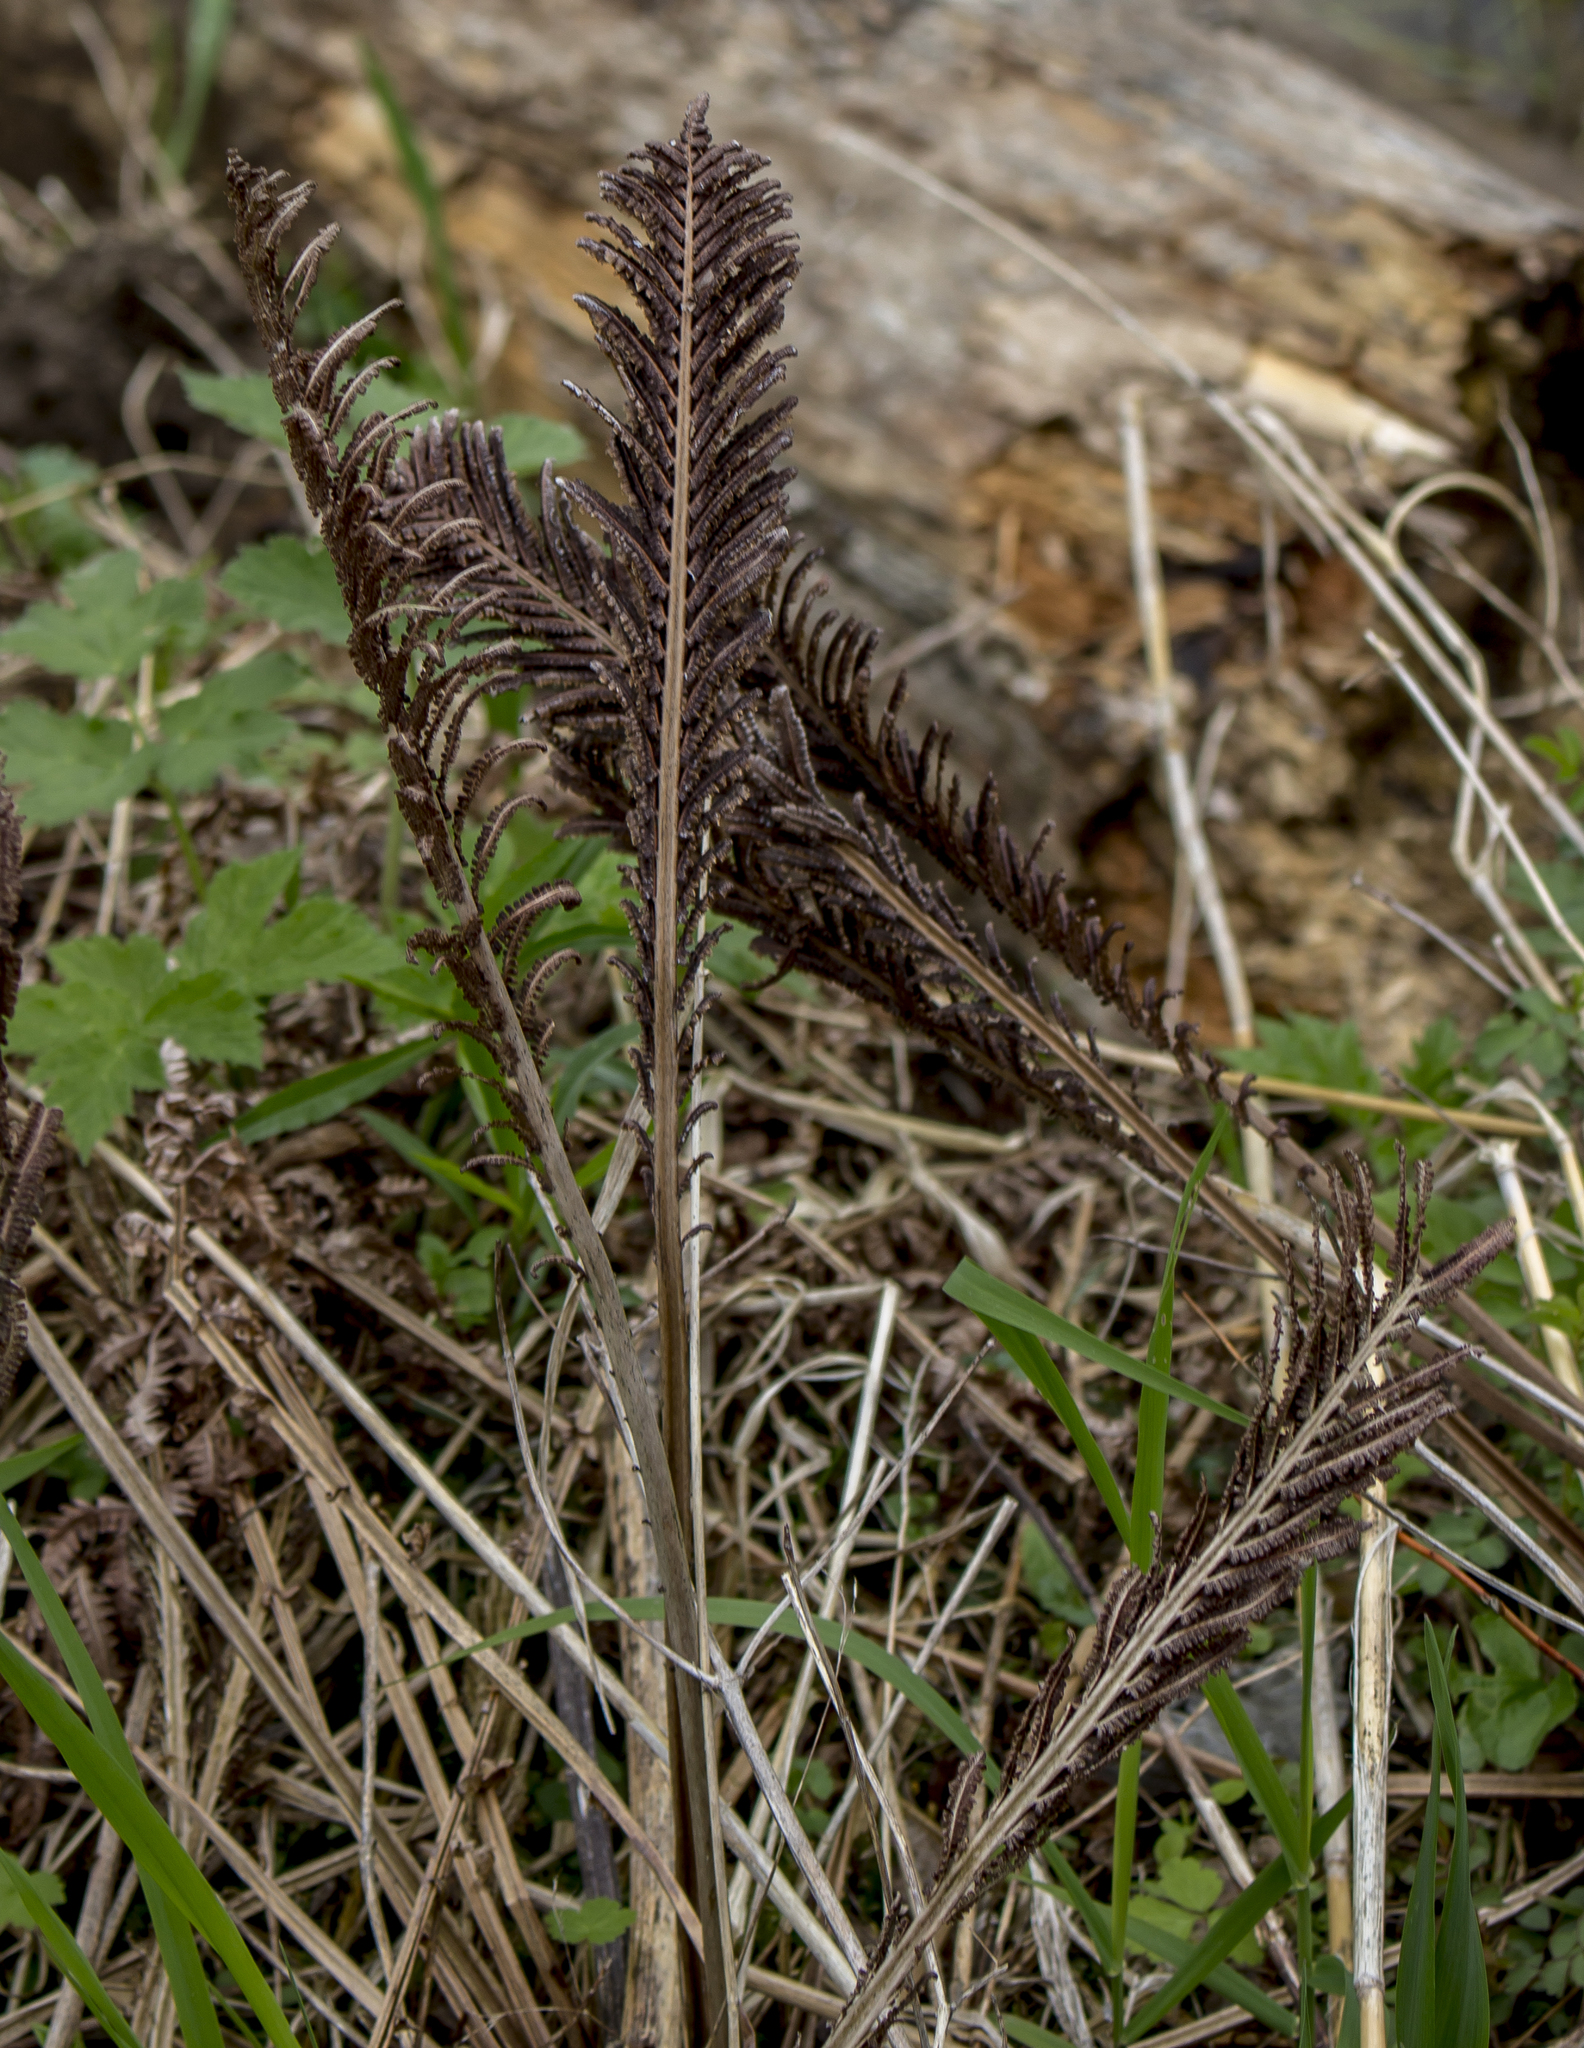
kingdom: Plantae
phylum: Tracheophyta
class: Polypodiopsida
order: Polypodiales
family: Onocleaceae
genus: Matteuccia
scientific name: Matteuccia struthiopteris
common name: Ostrich fern
